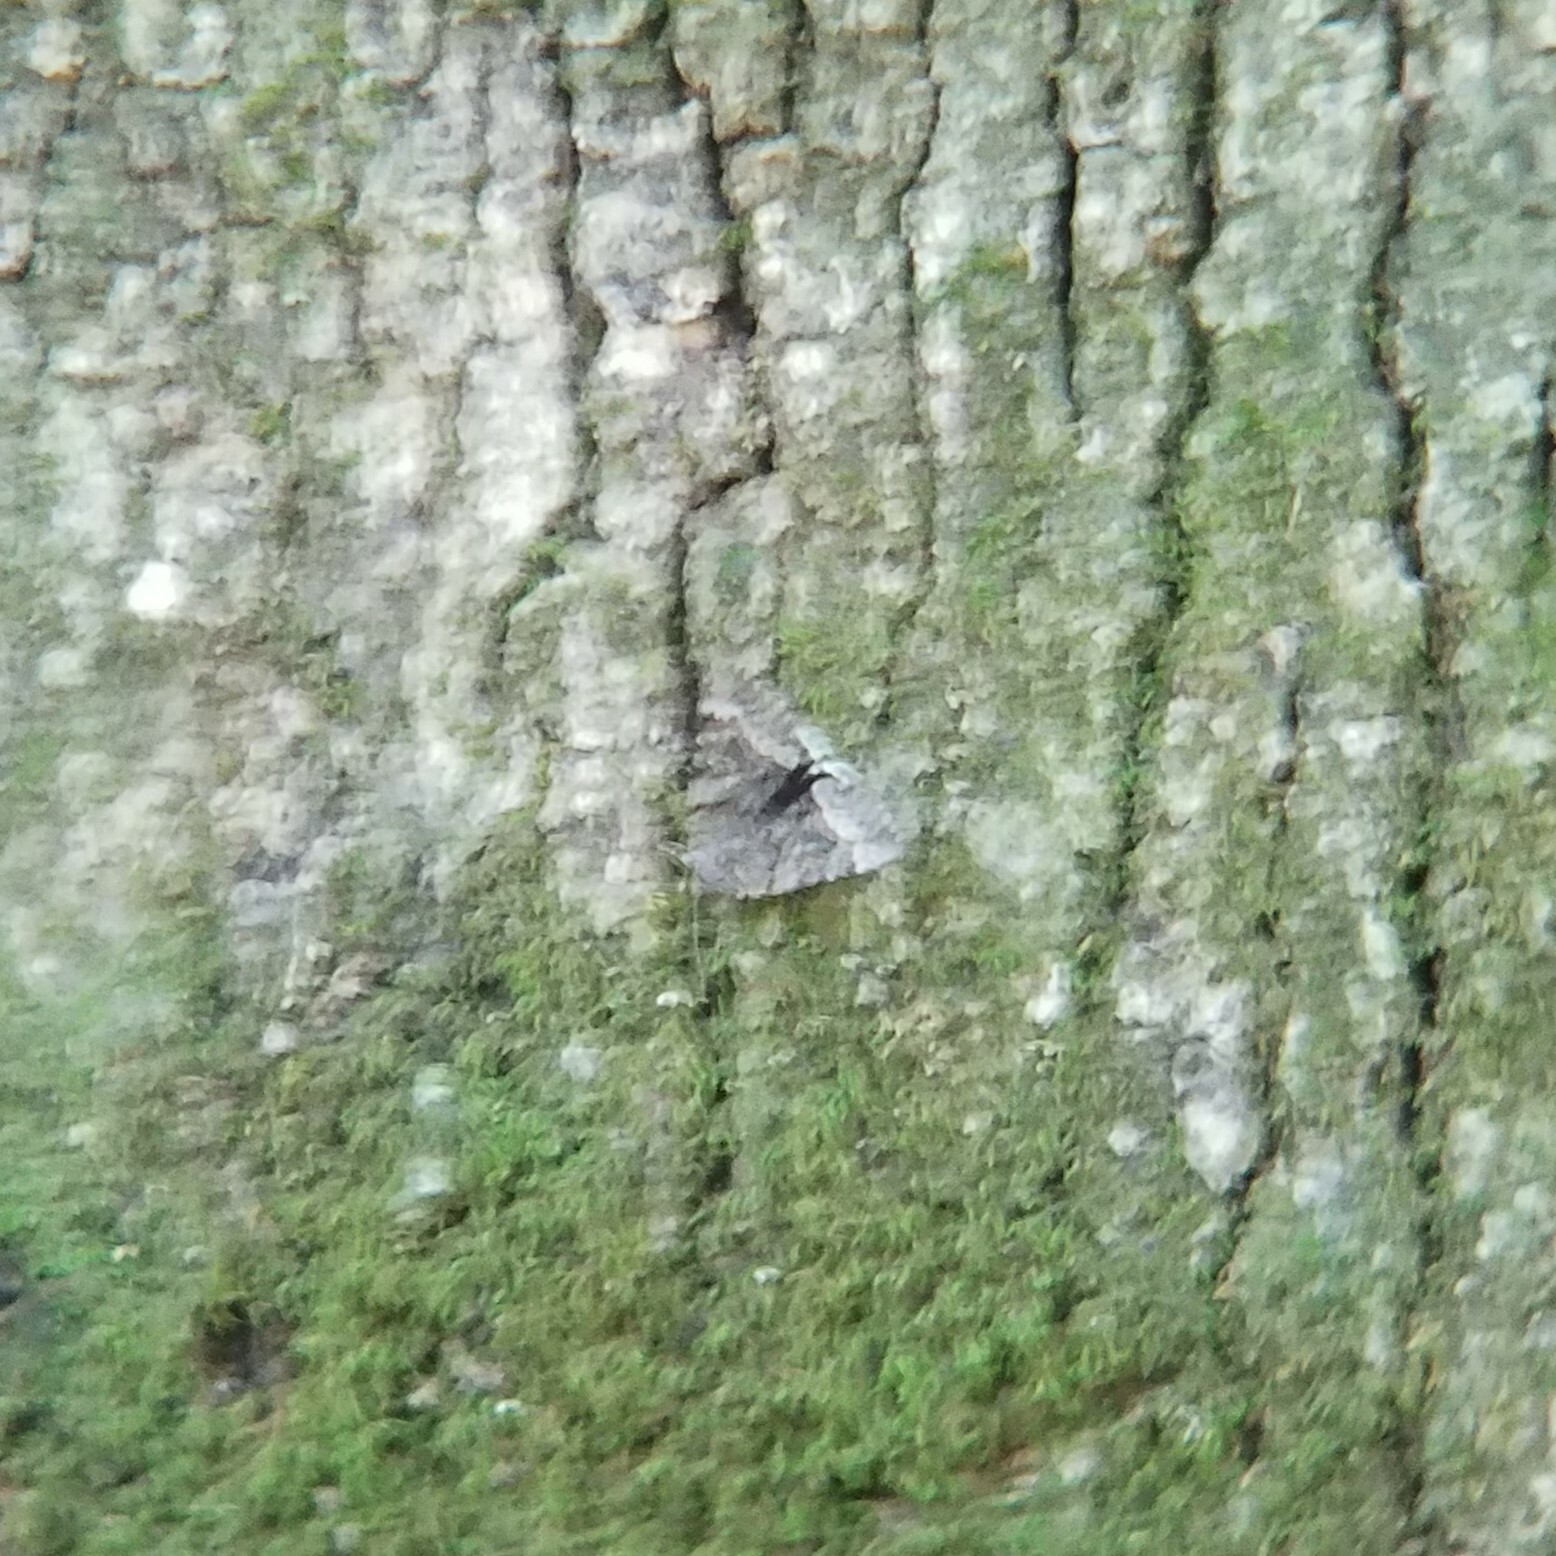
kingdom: Animalia
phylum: Arthropoda
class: Insecta
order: Lepidoptera
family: Erebidae
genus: Catocala
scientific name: Catocala epione
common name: Epione underwing
